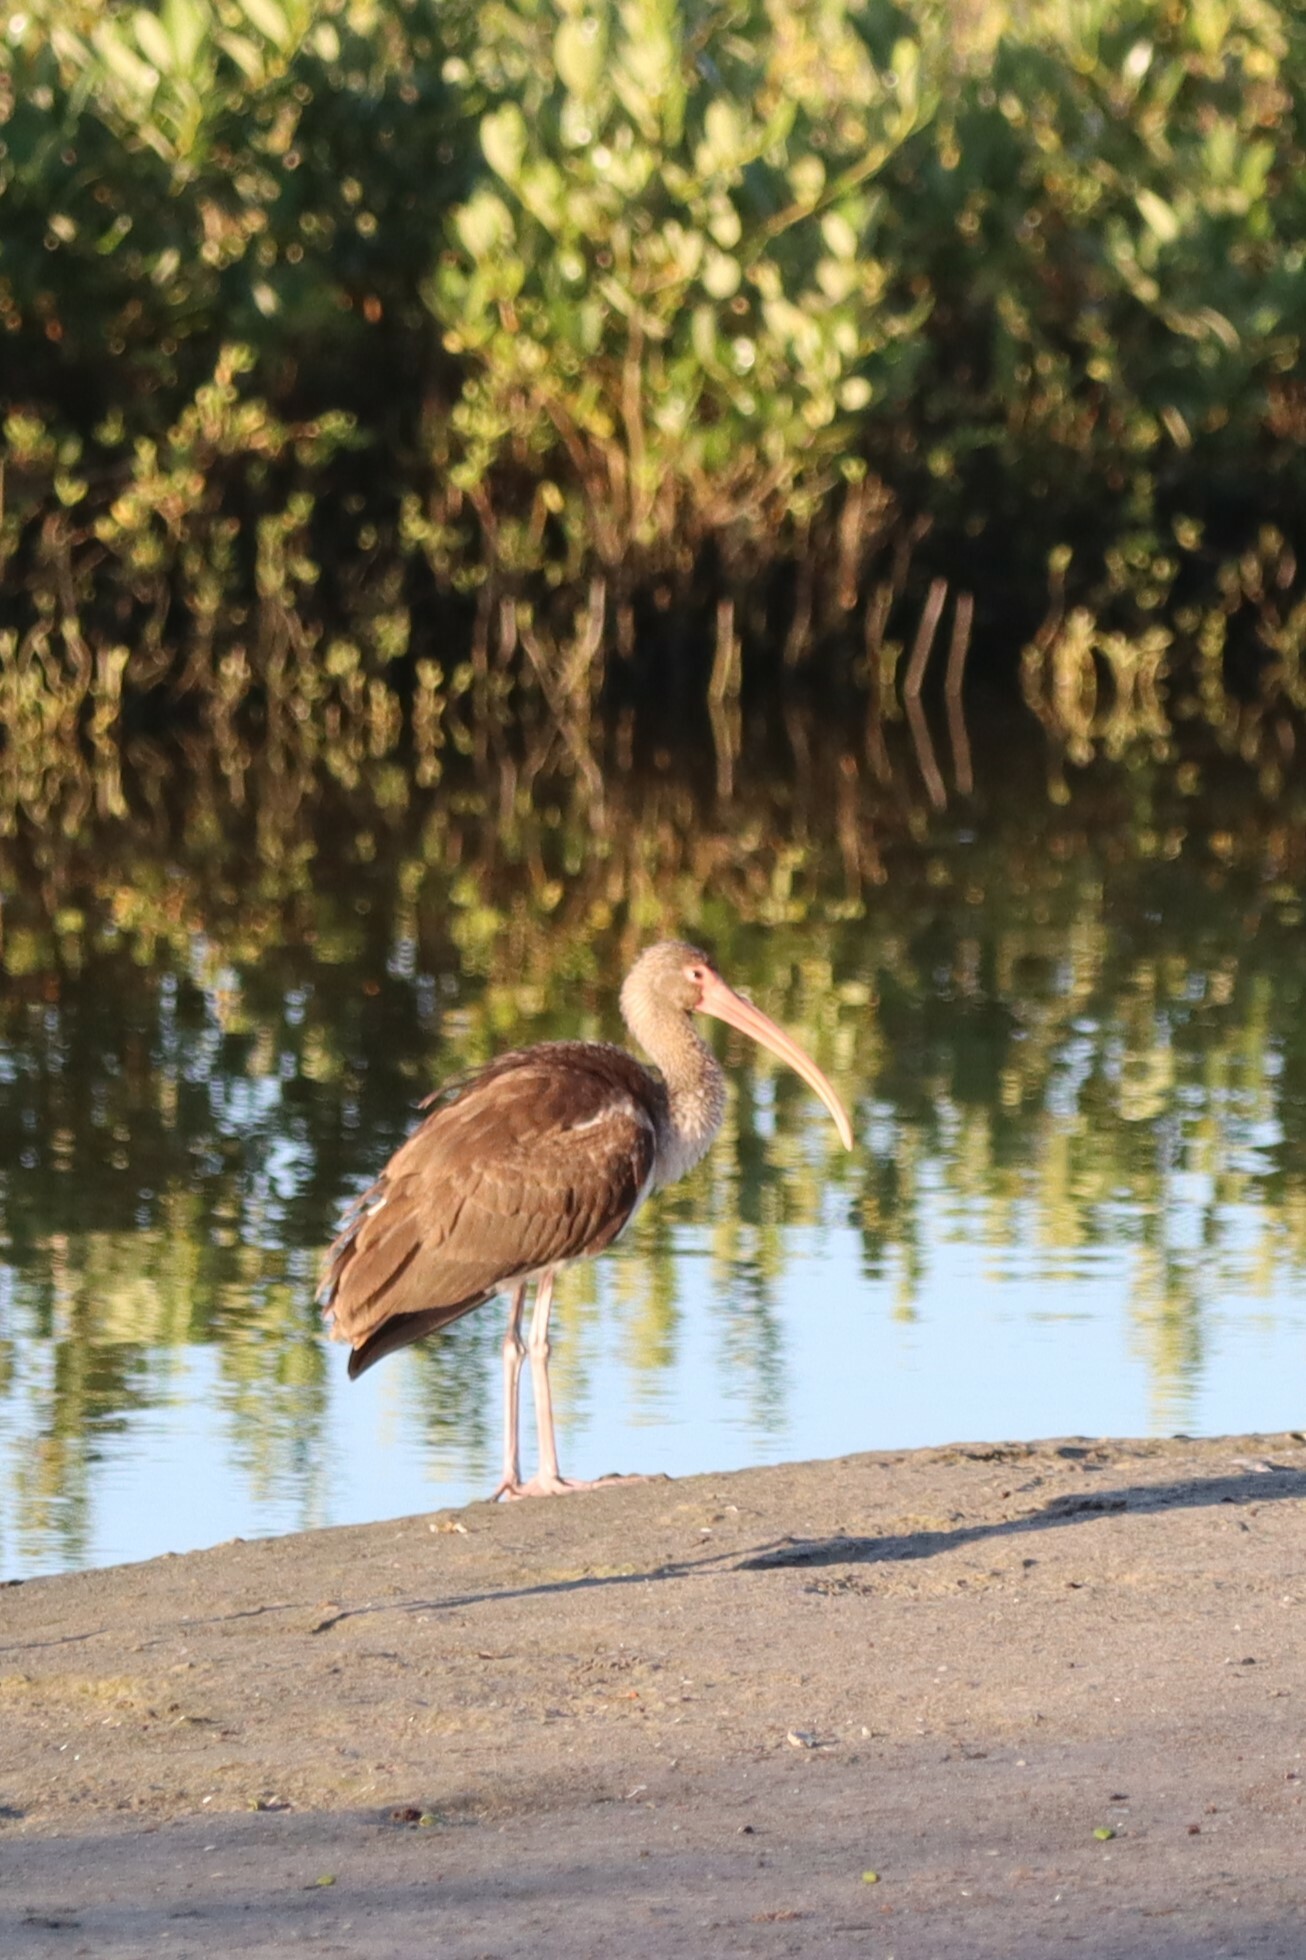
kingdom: Animalia
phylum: Chordata
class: Aves
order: Pelecaniformes
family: Threskiornithidae
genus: Eudocimus
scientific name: Eudocimus albus
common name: White ibis
